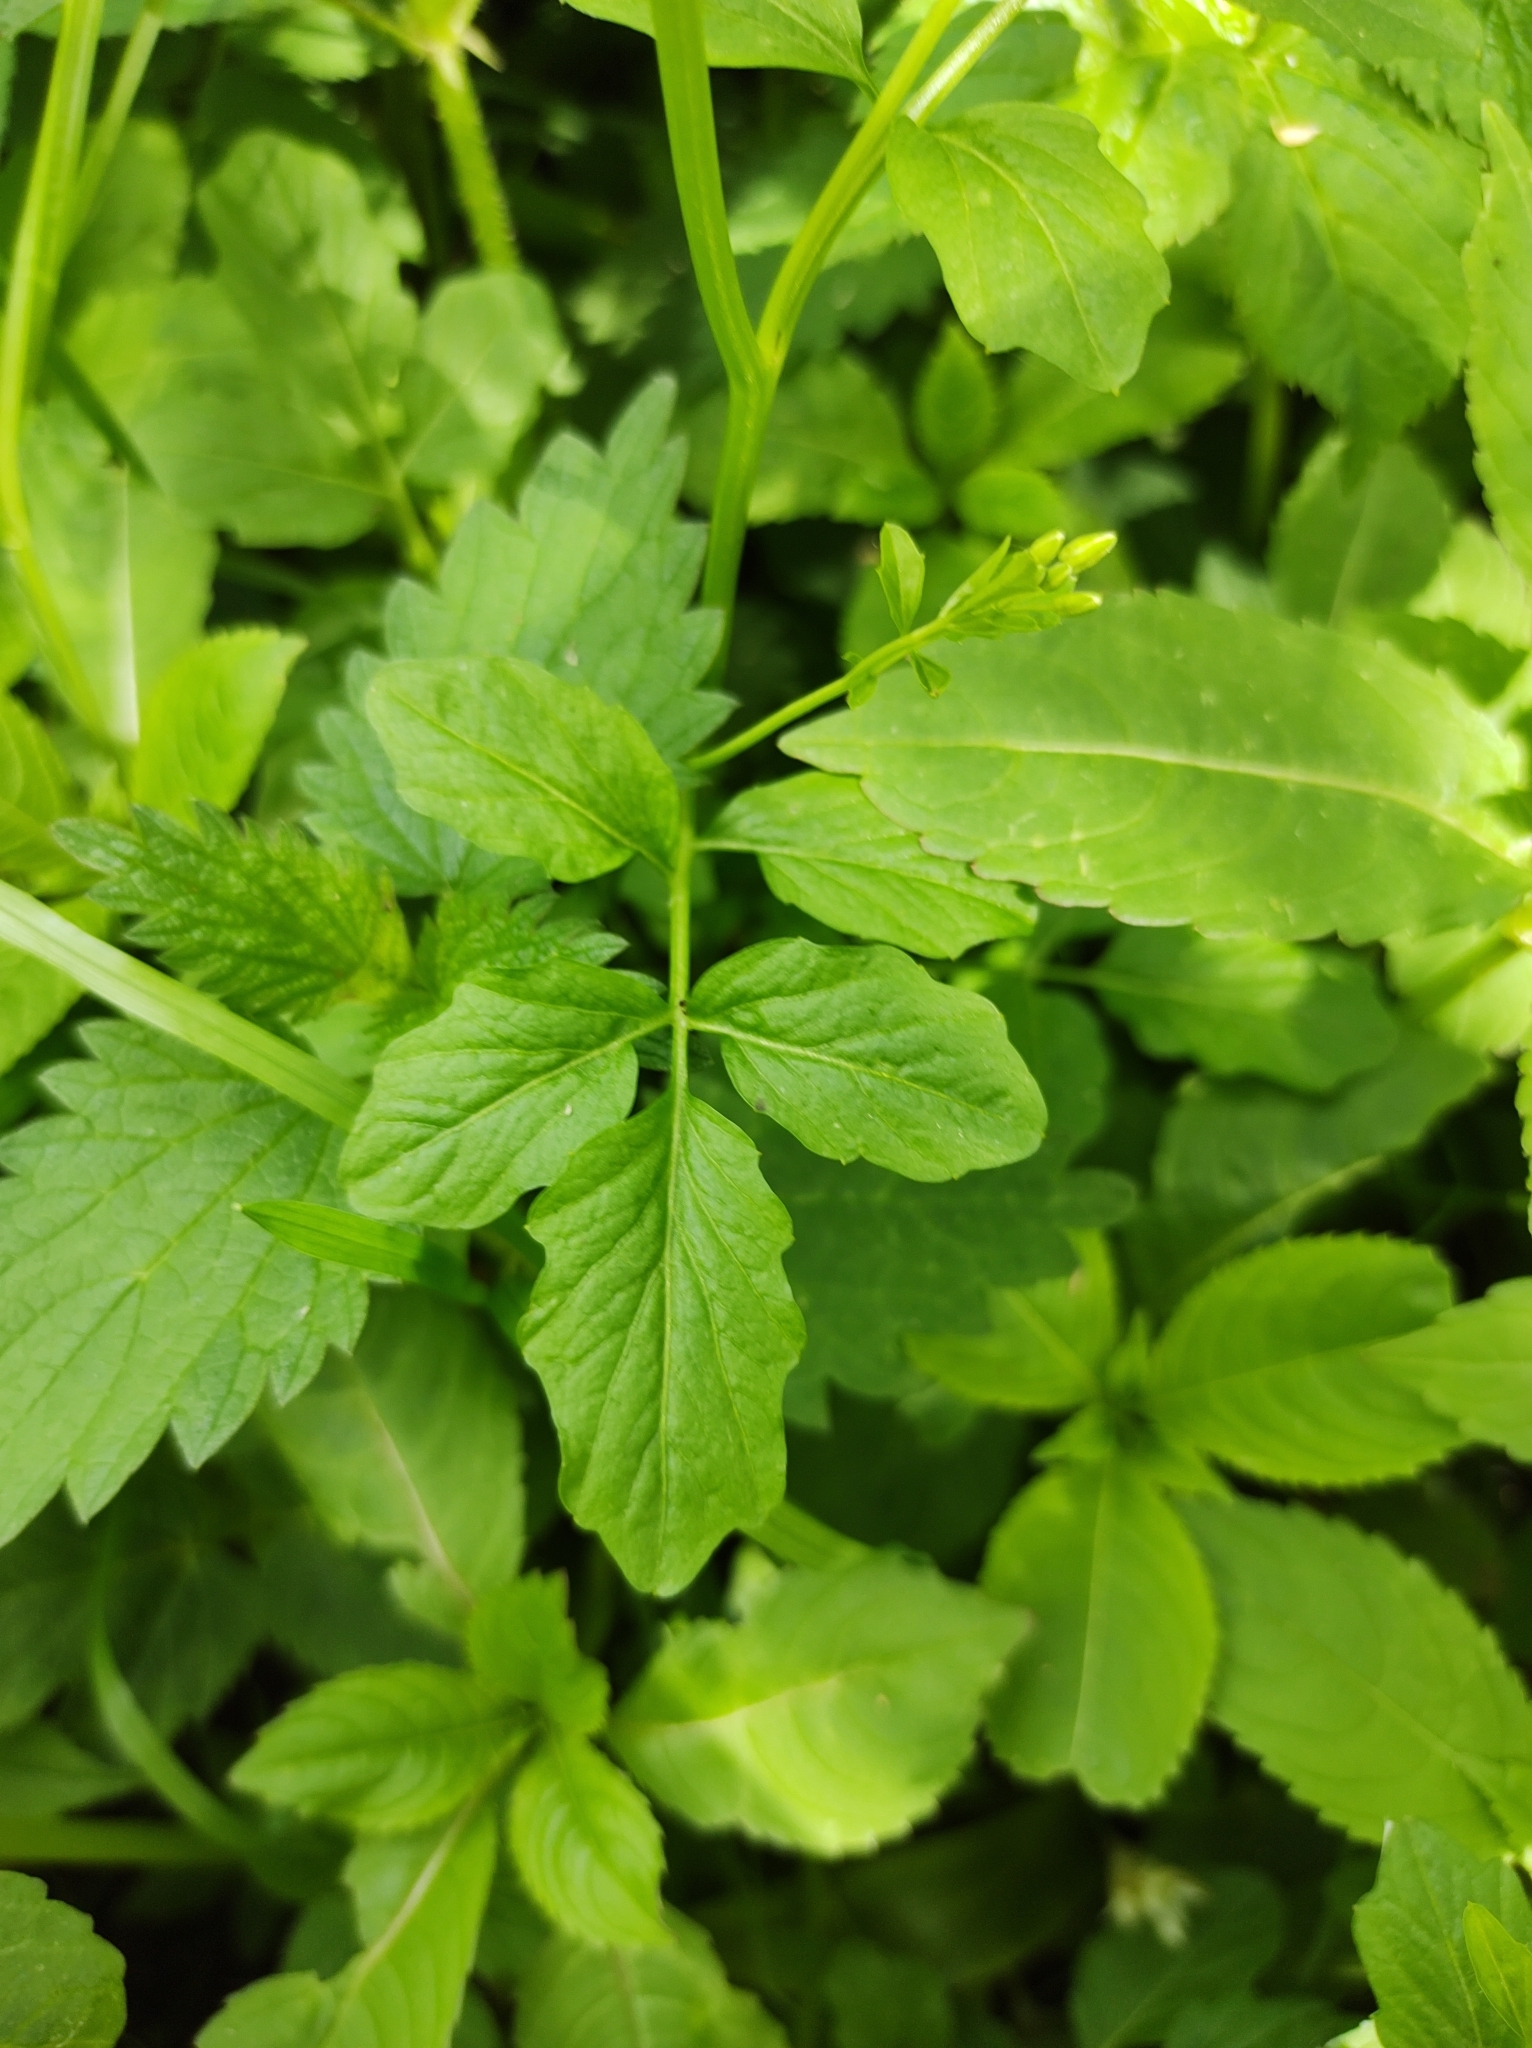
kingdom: Plantae
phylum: Tracheophyta
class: Magnoliopsida
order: Brassicales
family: Brassicaceae
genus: Cardamine
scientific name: Cardamine amara
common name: Large bitter-cress
